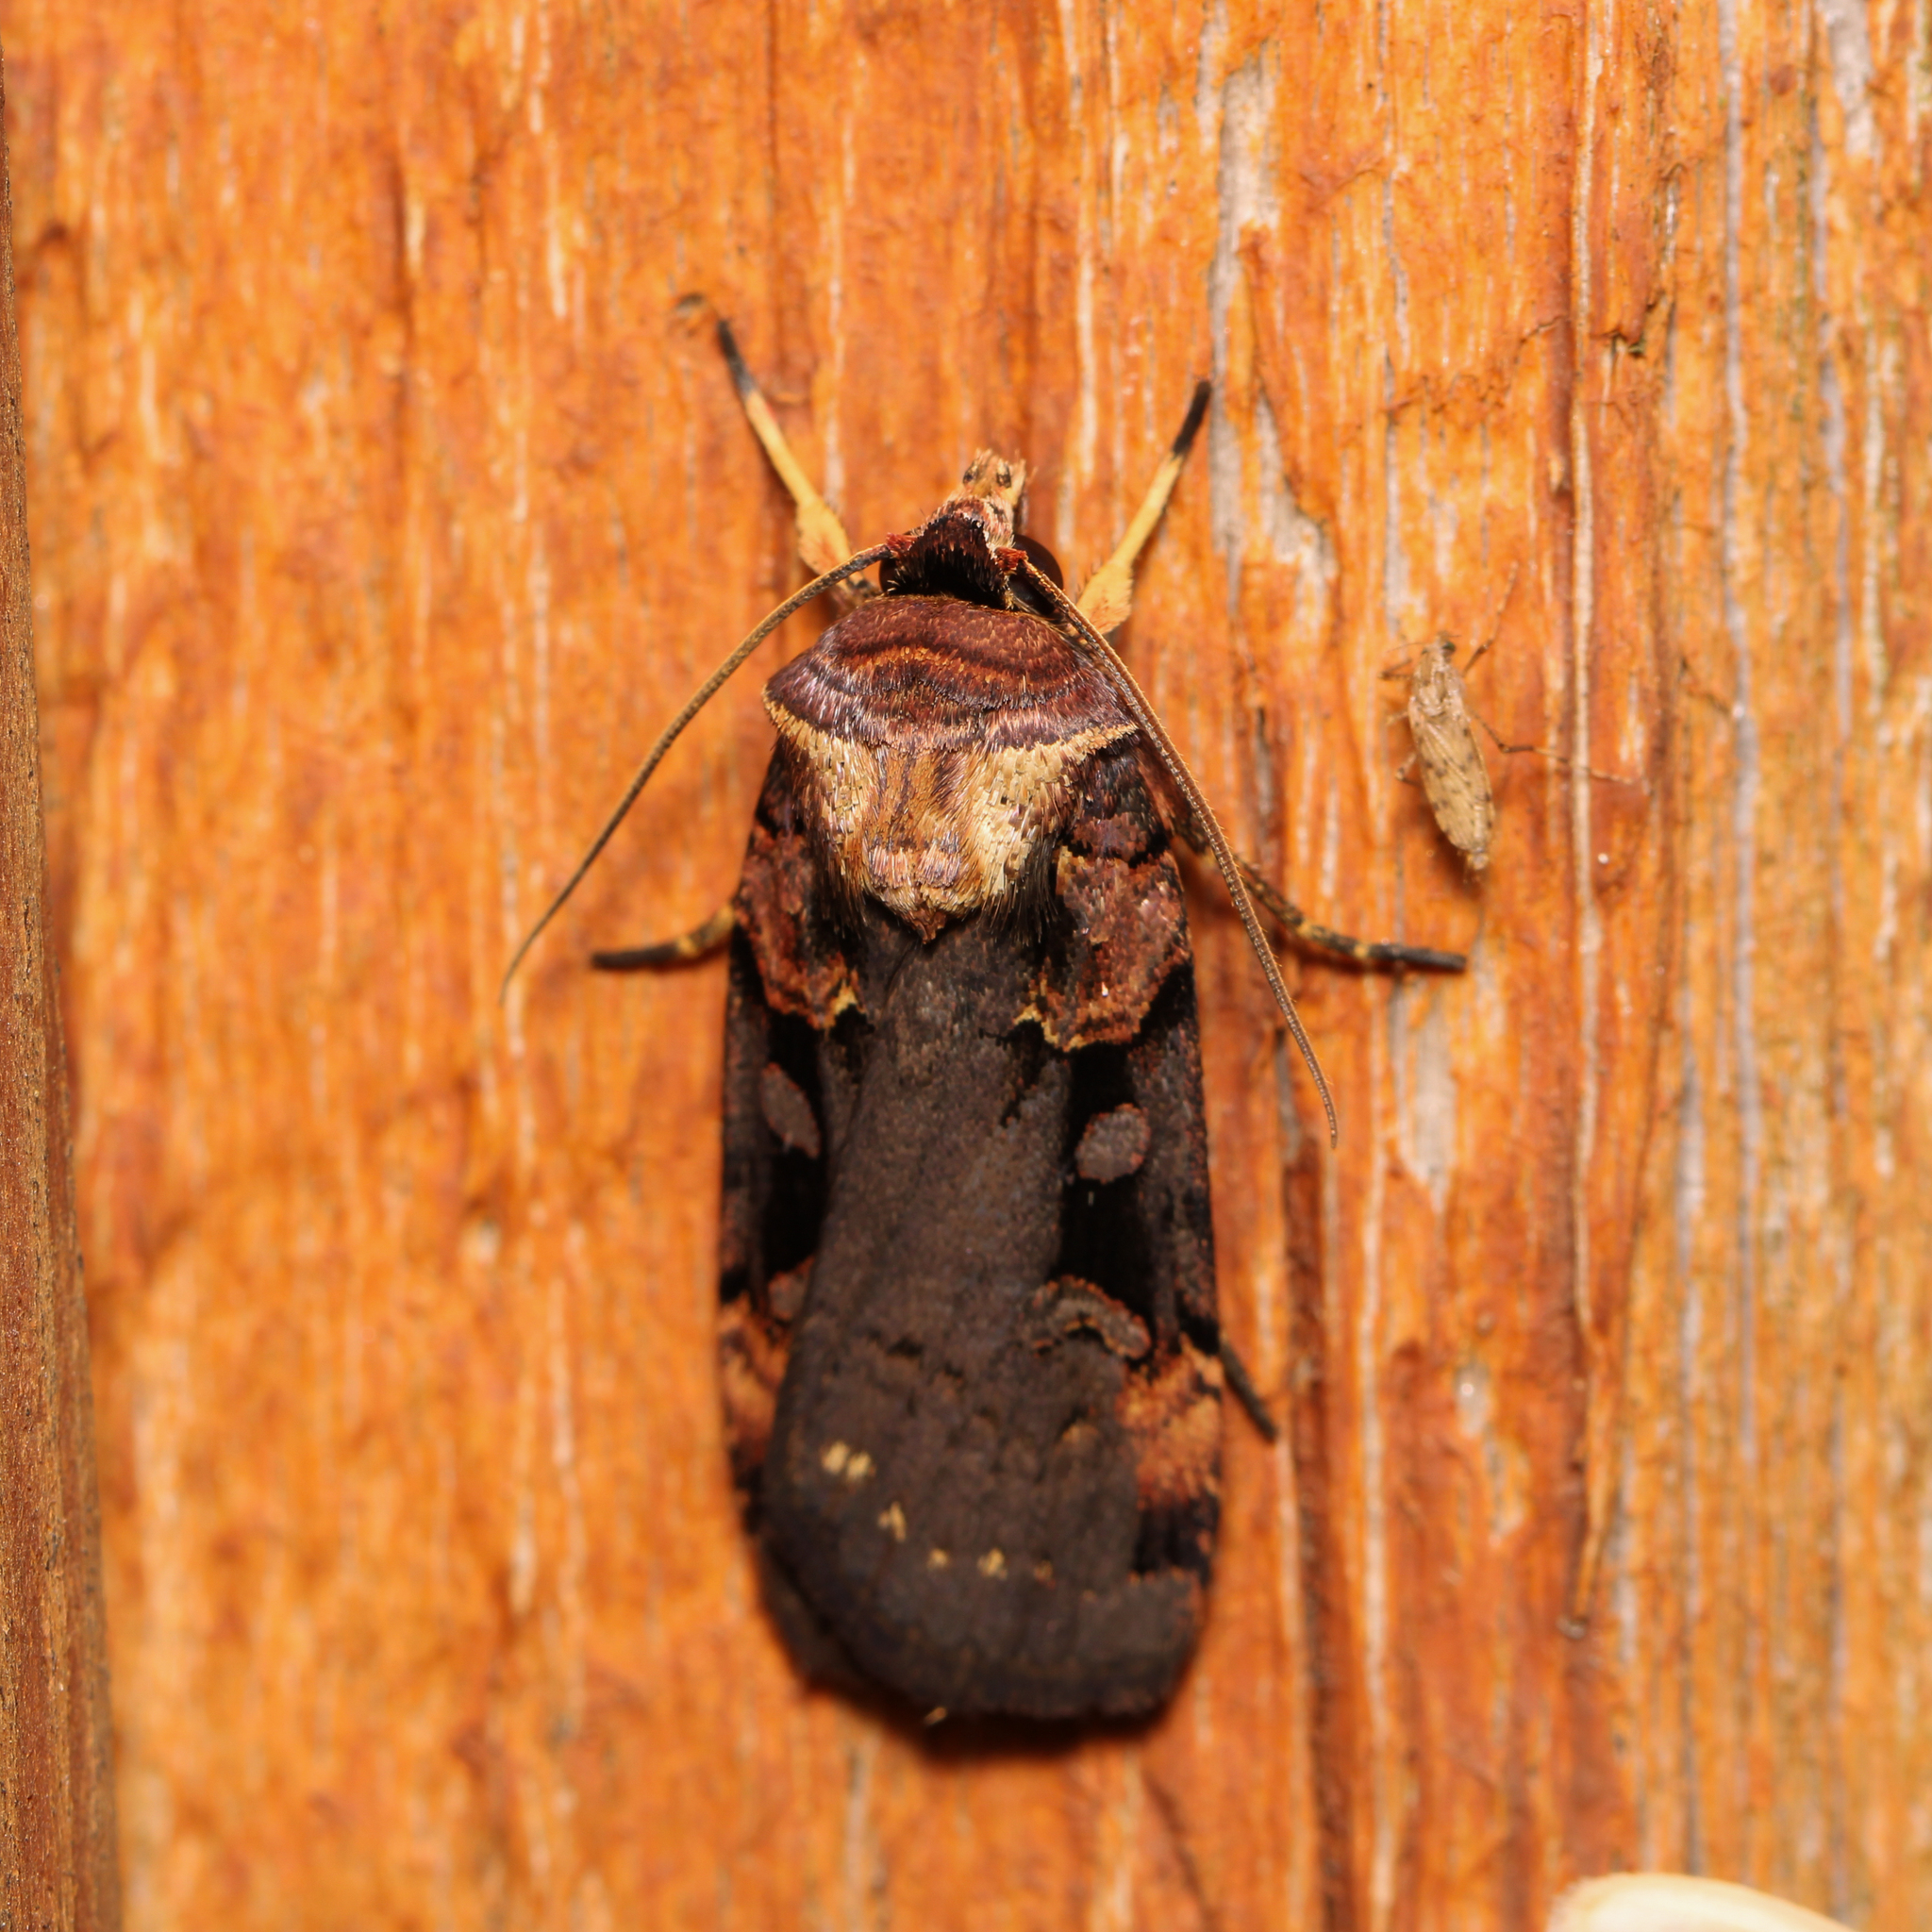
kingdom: Animalia
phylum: Arthropoda
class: Insecta
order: Lepidoptera
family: Noctuidae
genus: Pseudohermonassa
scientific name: Pseudohermonassa bicarnea
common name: Pink spotted dart
